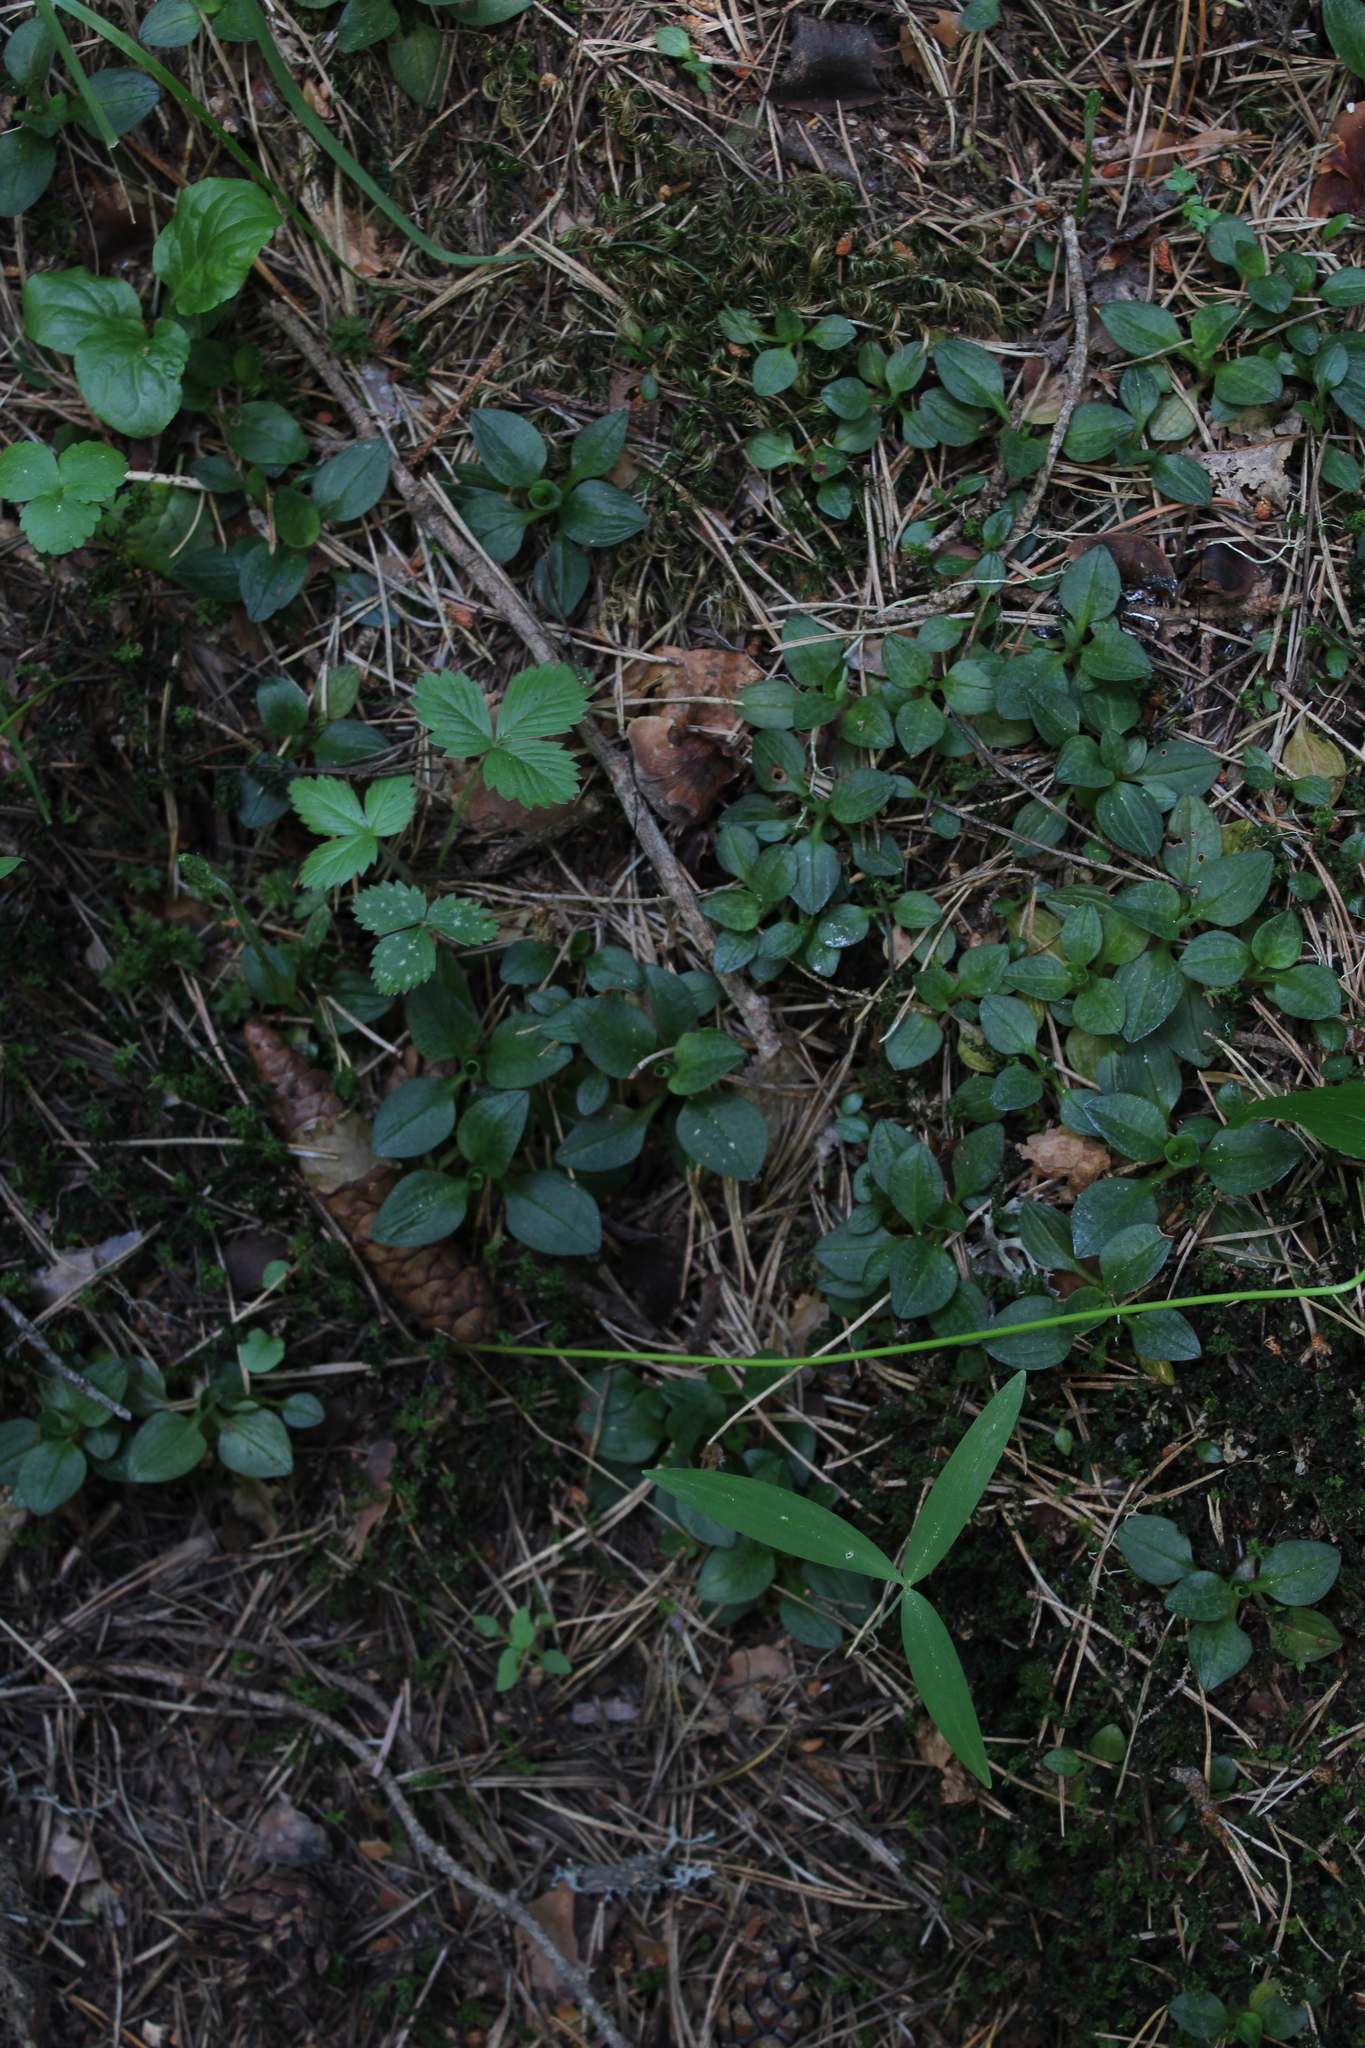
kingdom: Plantae
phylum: Tracheophyta
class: Liliopsida
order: Asparagales
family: Orchidaceae
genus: Goodyera
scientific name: Goodyera repens
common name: Creeping lady's-tresses
